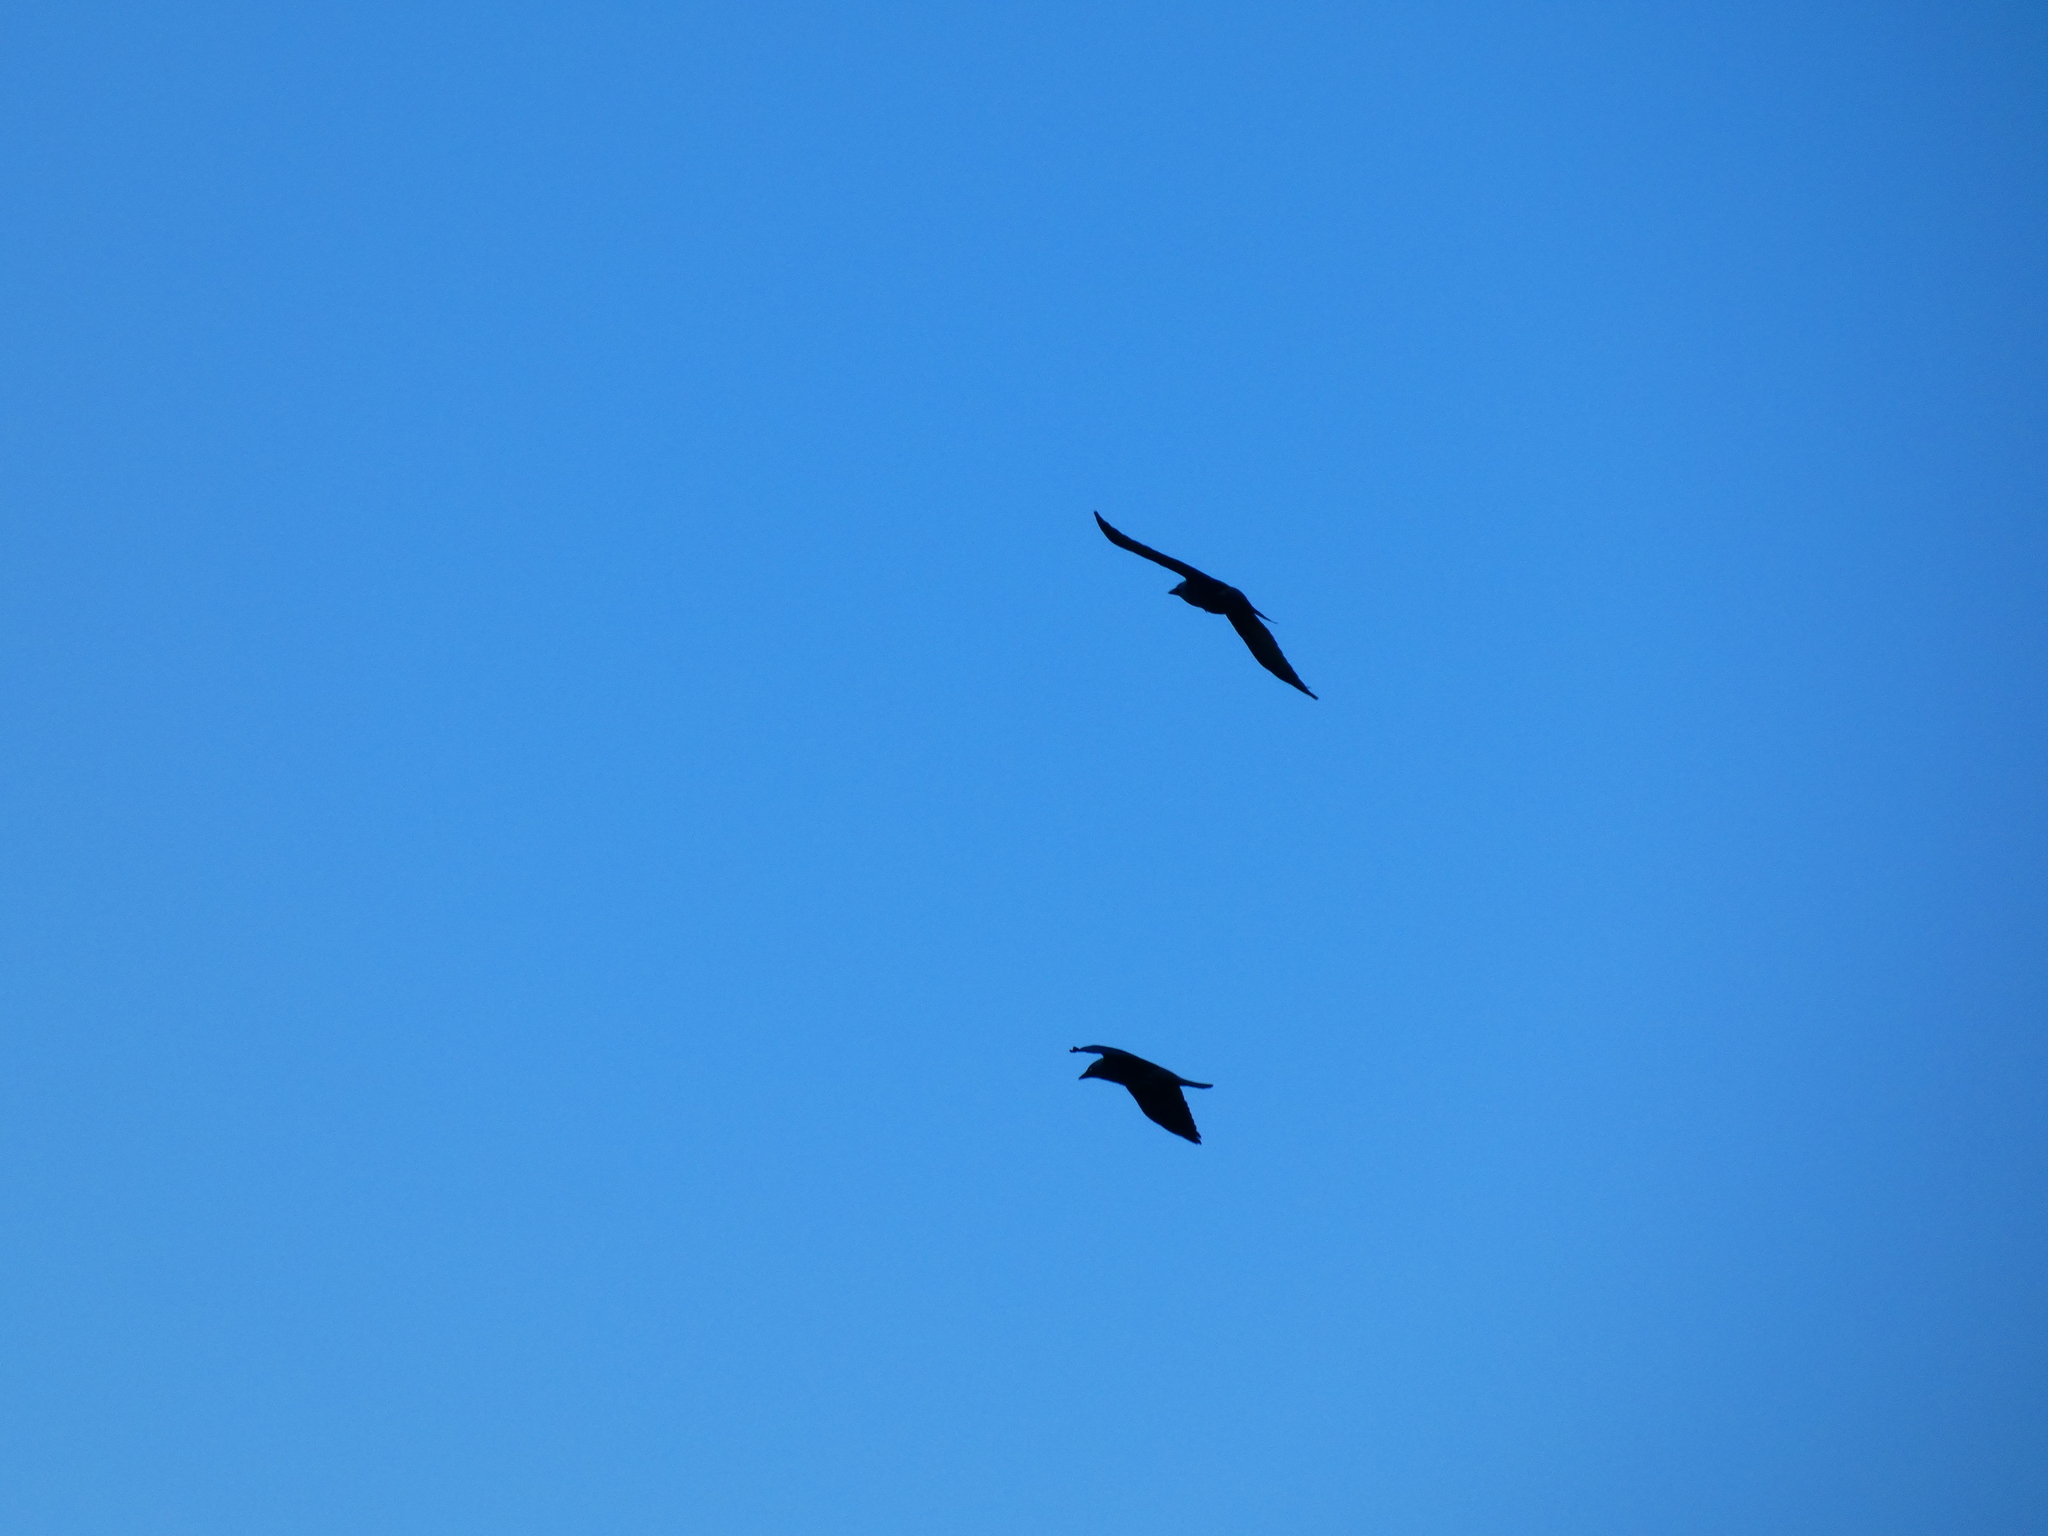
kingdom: Animalia
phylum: Chordata
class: Aves
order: Passeriformes
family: Corvidae
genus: Corvus
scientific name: Corvus corax
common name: Common raven
